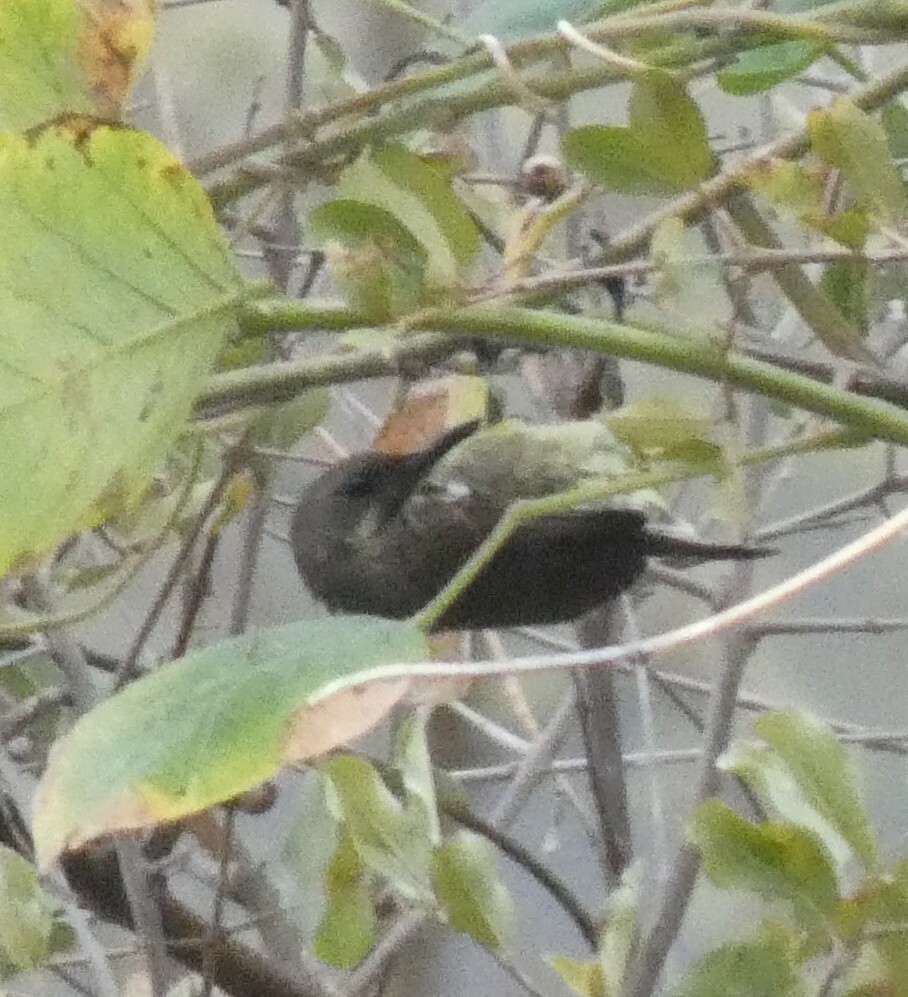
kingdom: Animalia
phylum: Chordata
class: Aves
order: Passeriformes
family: Nectariniidae
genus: Chalcomitra
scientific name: Chalcomitra senegalensis
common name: Scarlet-chested sunbird
